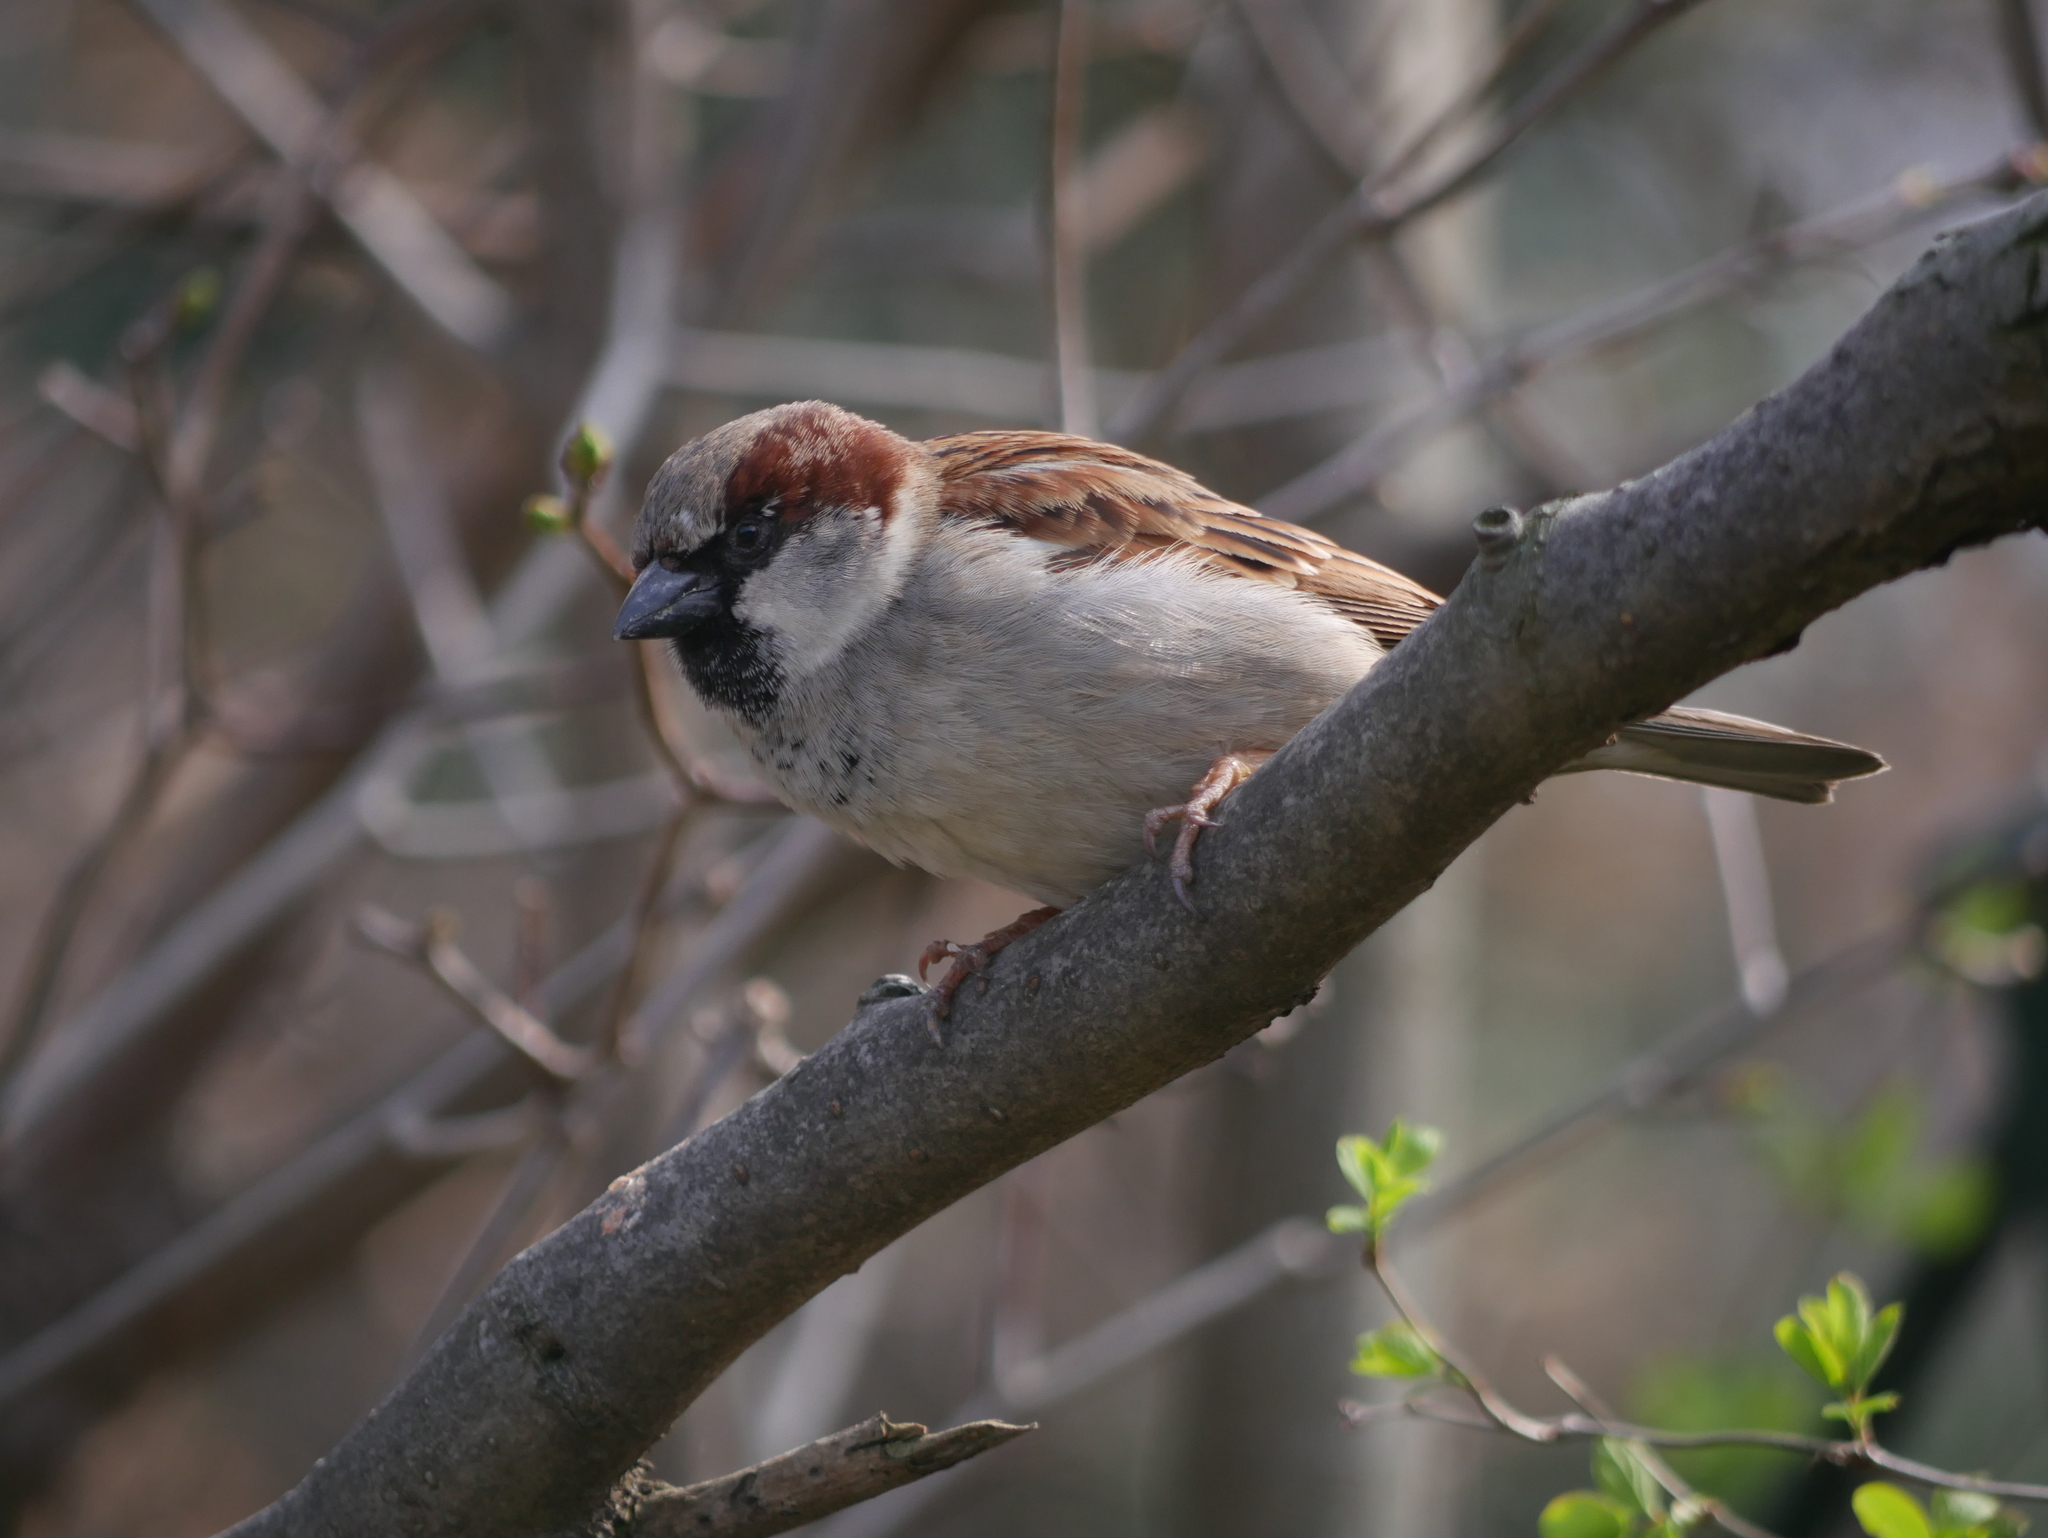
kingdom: Animalia
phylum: Chordata
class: Aves
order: Passeriformes
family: Passeridae
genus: Passer
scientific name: Passer domesticus
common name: House sparrow
